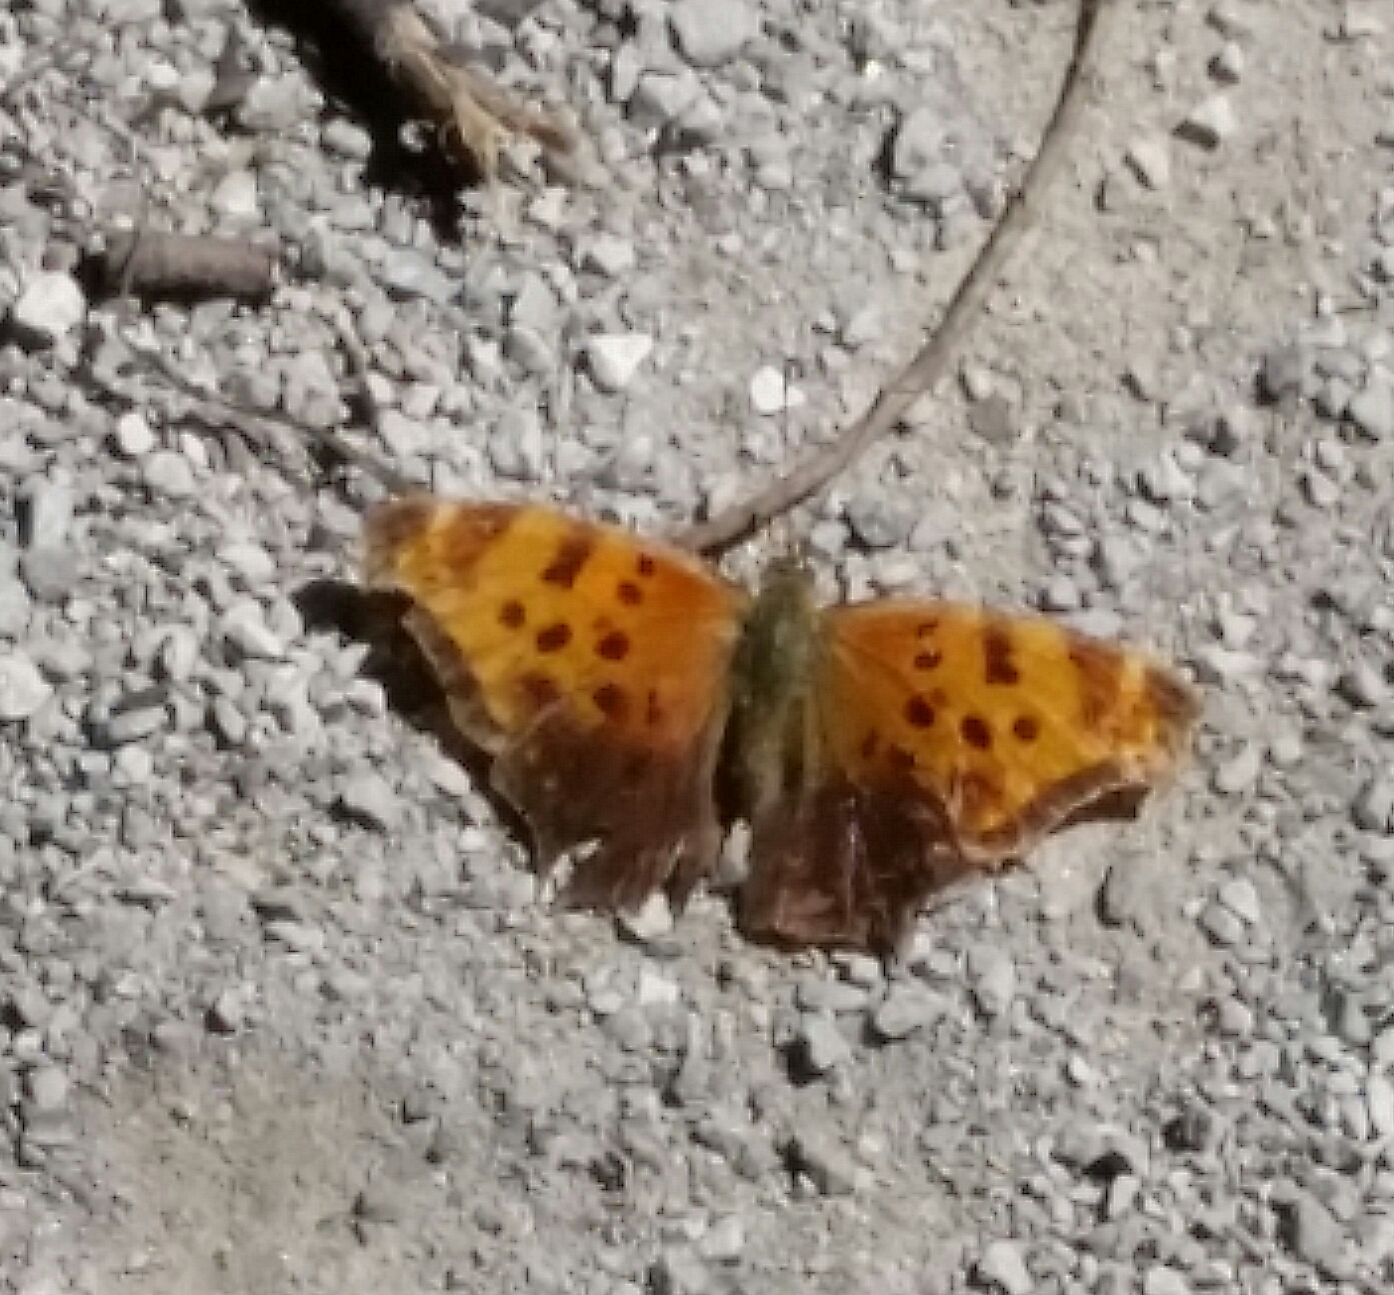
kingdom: Animalia
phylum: Arthropoda
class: Insecta
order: Lepidoptera
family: Nymphalidae
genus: Polygonia
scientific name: Polygonia comma
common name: Eastern comma
